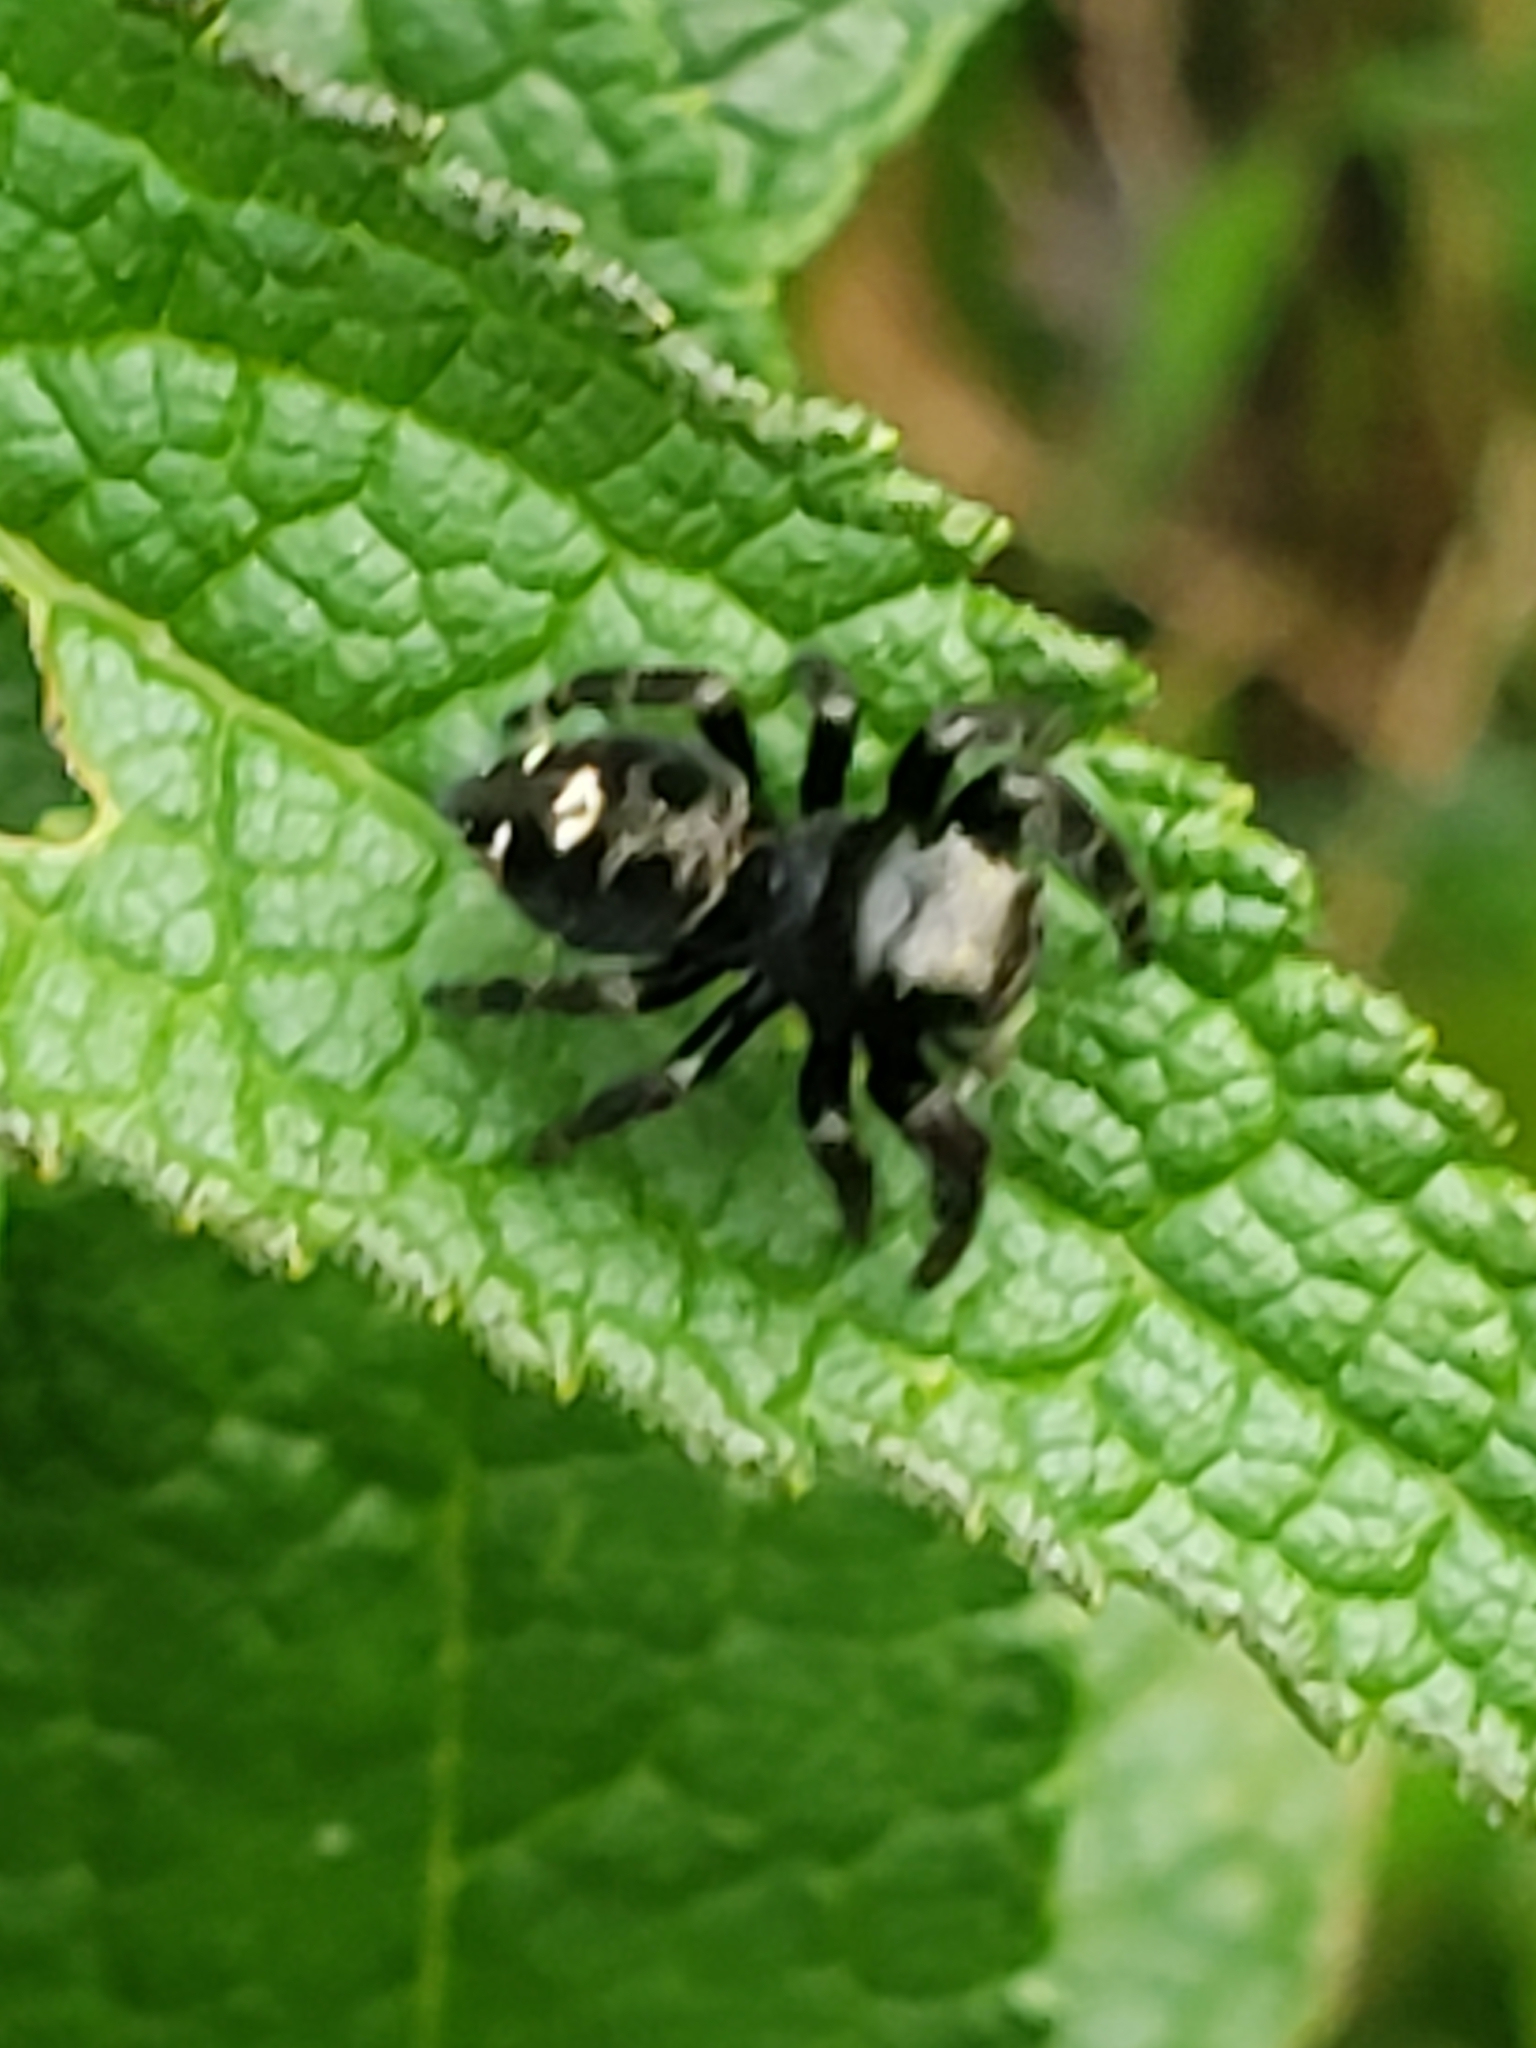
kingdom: Animalia
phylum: Arthropoda
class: Arachnida
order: Araneae
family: Salticidae
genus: Phidippus
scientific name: Phidippus audax
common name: Bold jumper
